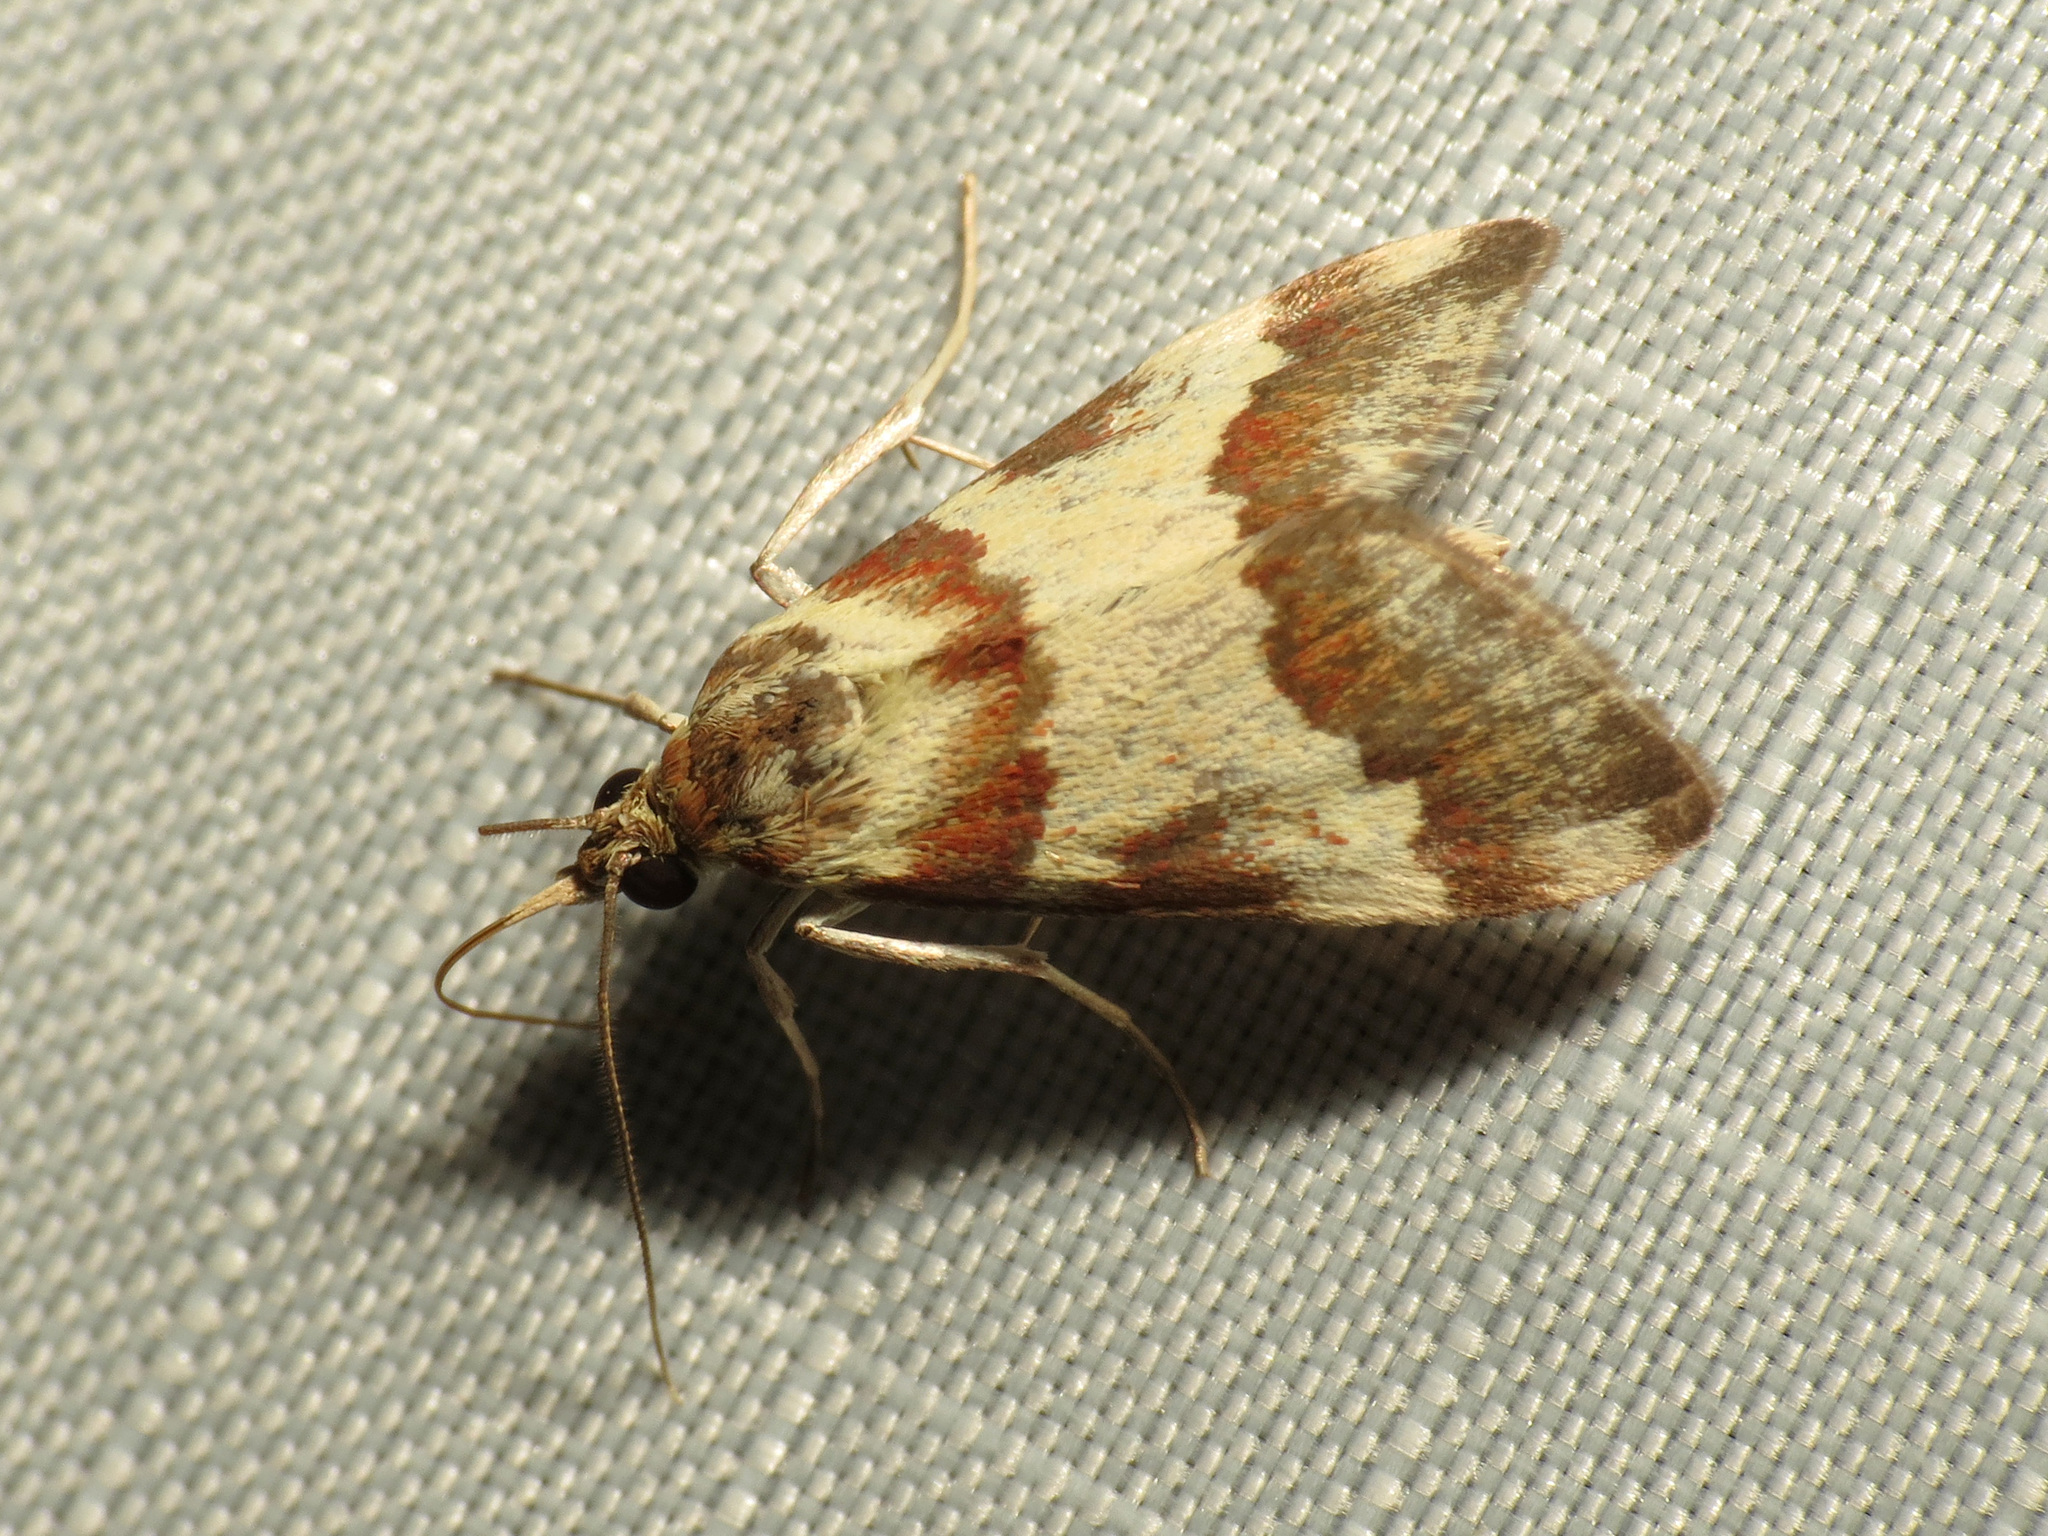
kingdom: Animalia
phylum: Arthropoda
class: Insecta
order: Lepidoptera
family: Crambidae
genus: Noctuelia
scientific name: Noctuelia Mimoschinia rufofascialis
